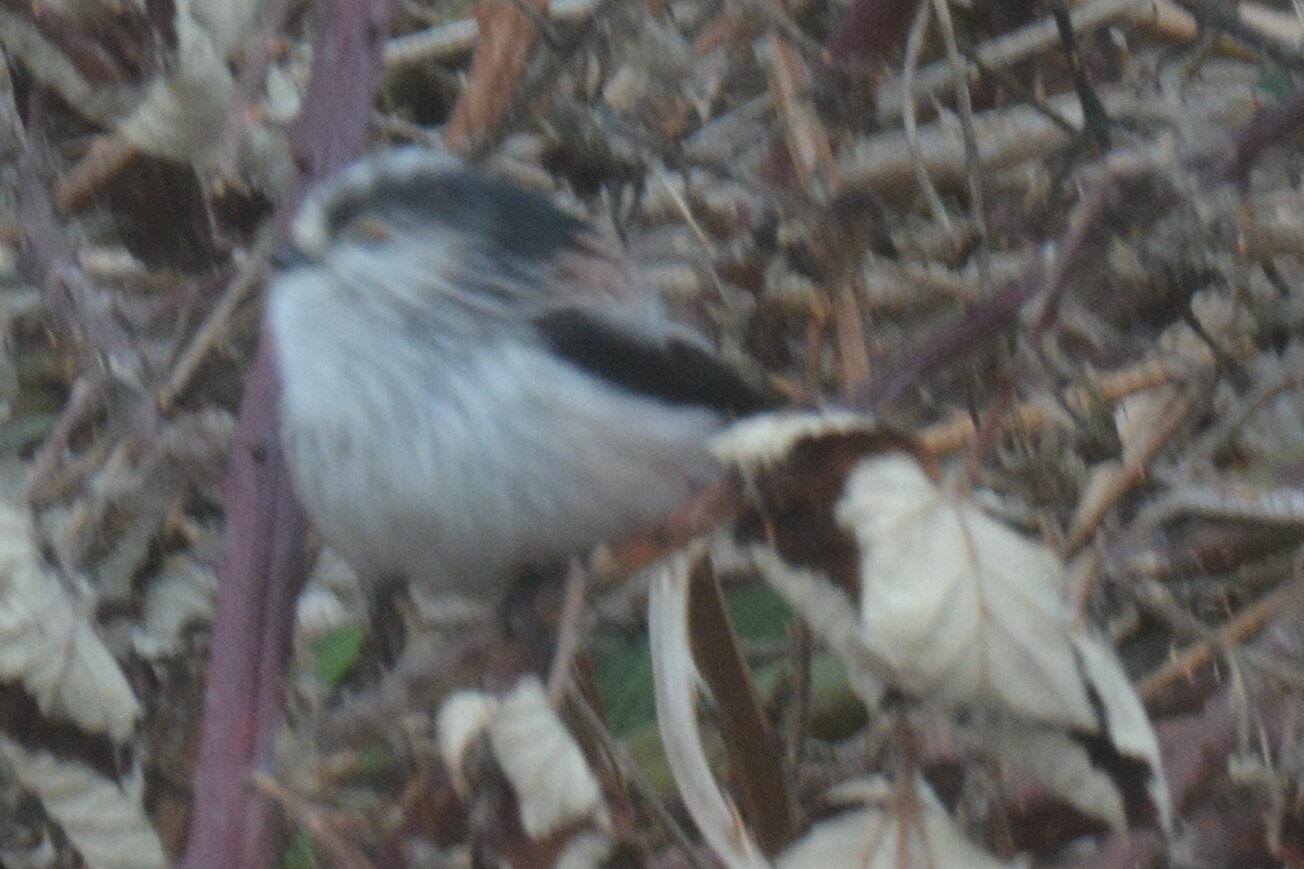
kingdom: Animalia
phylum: Chordata
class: Aves
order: Passeriformes
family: Aegithalidae
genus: Aegithalos
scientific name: Aegithalos caudatus
